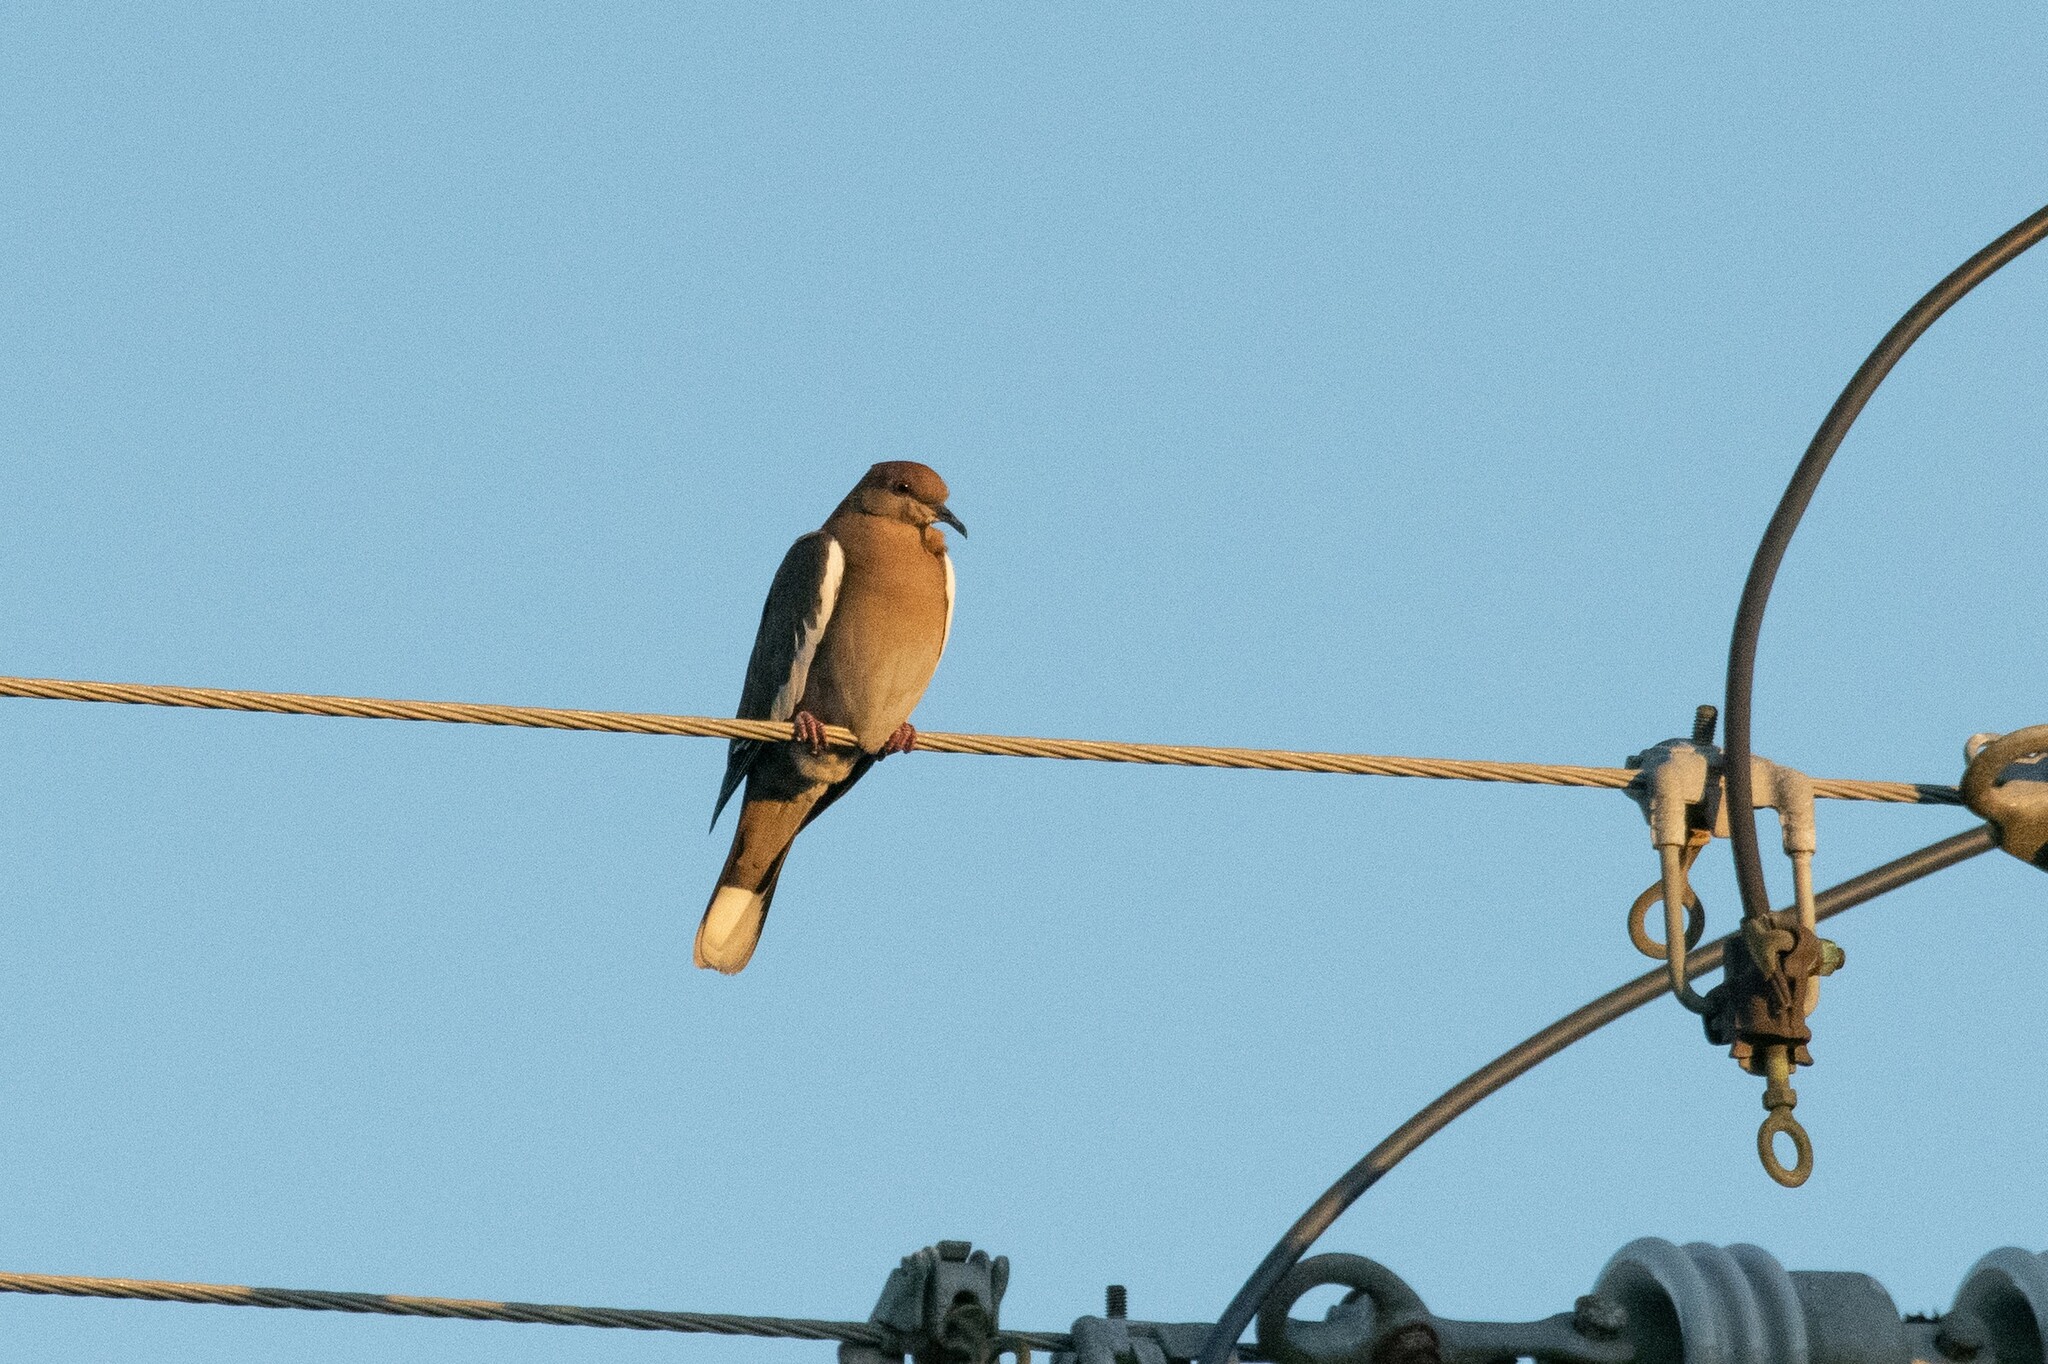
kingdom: Animalia
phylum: Chordata
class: Aves
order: Columbiformes
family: Columbidae
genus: Zenaida
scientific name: Zenaida asiatica
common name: White-winged dove
